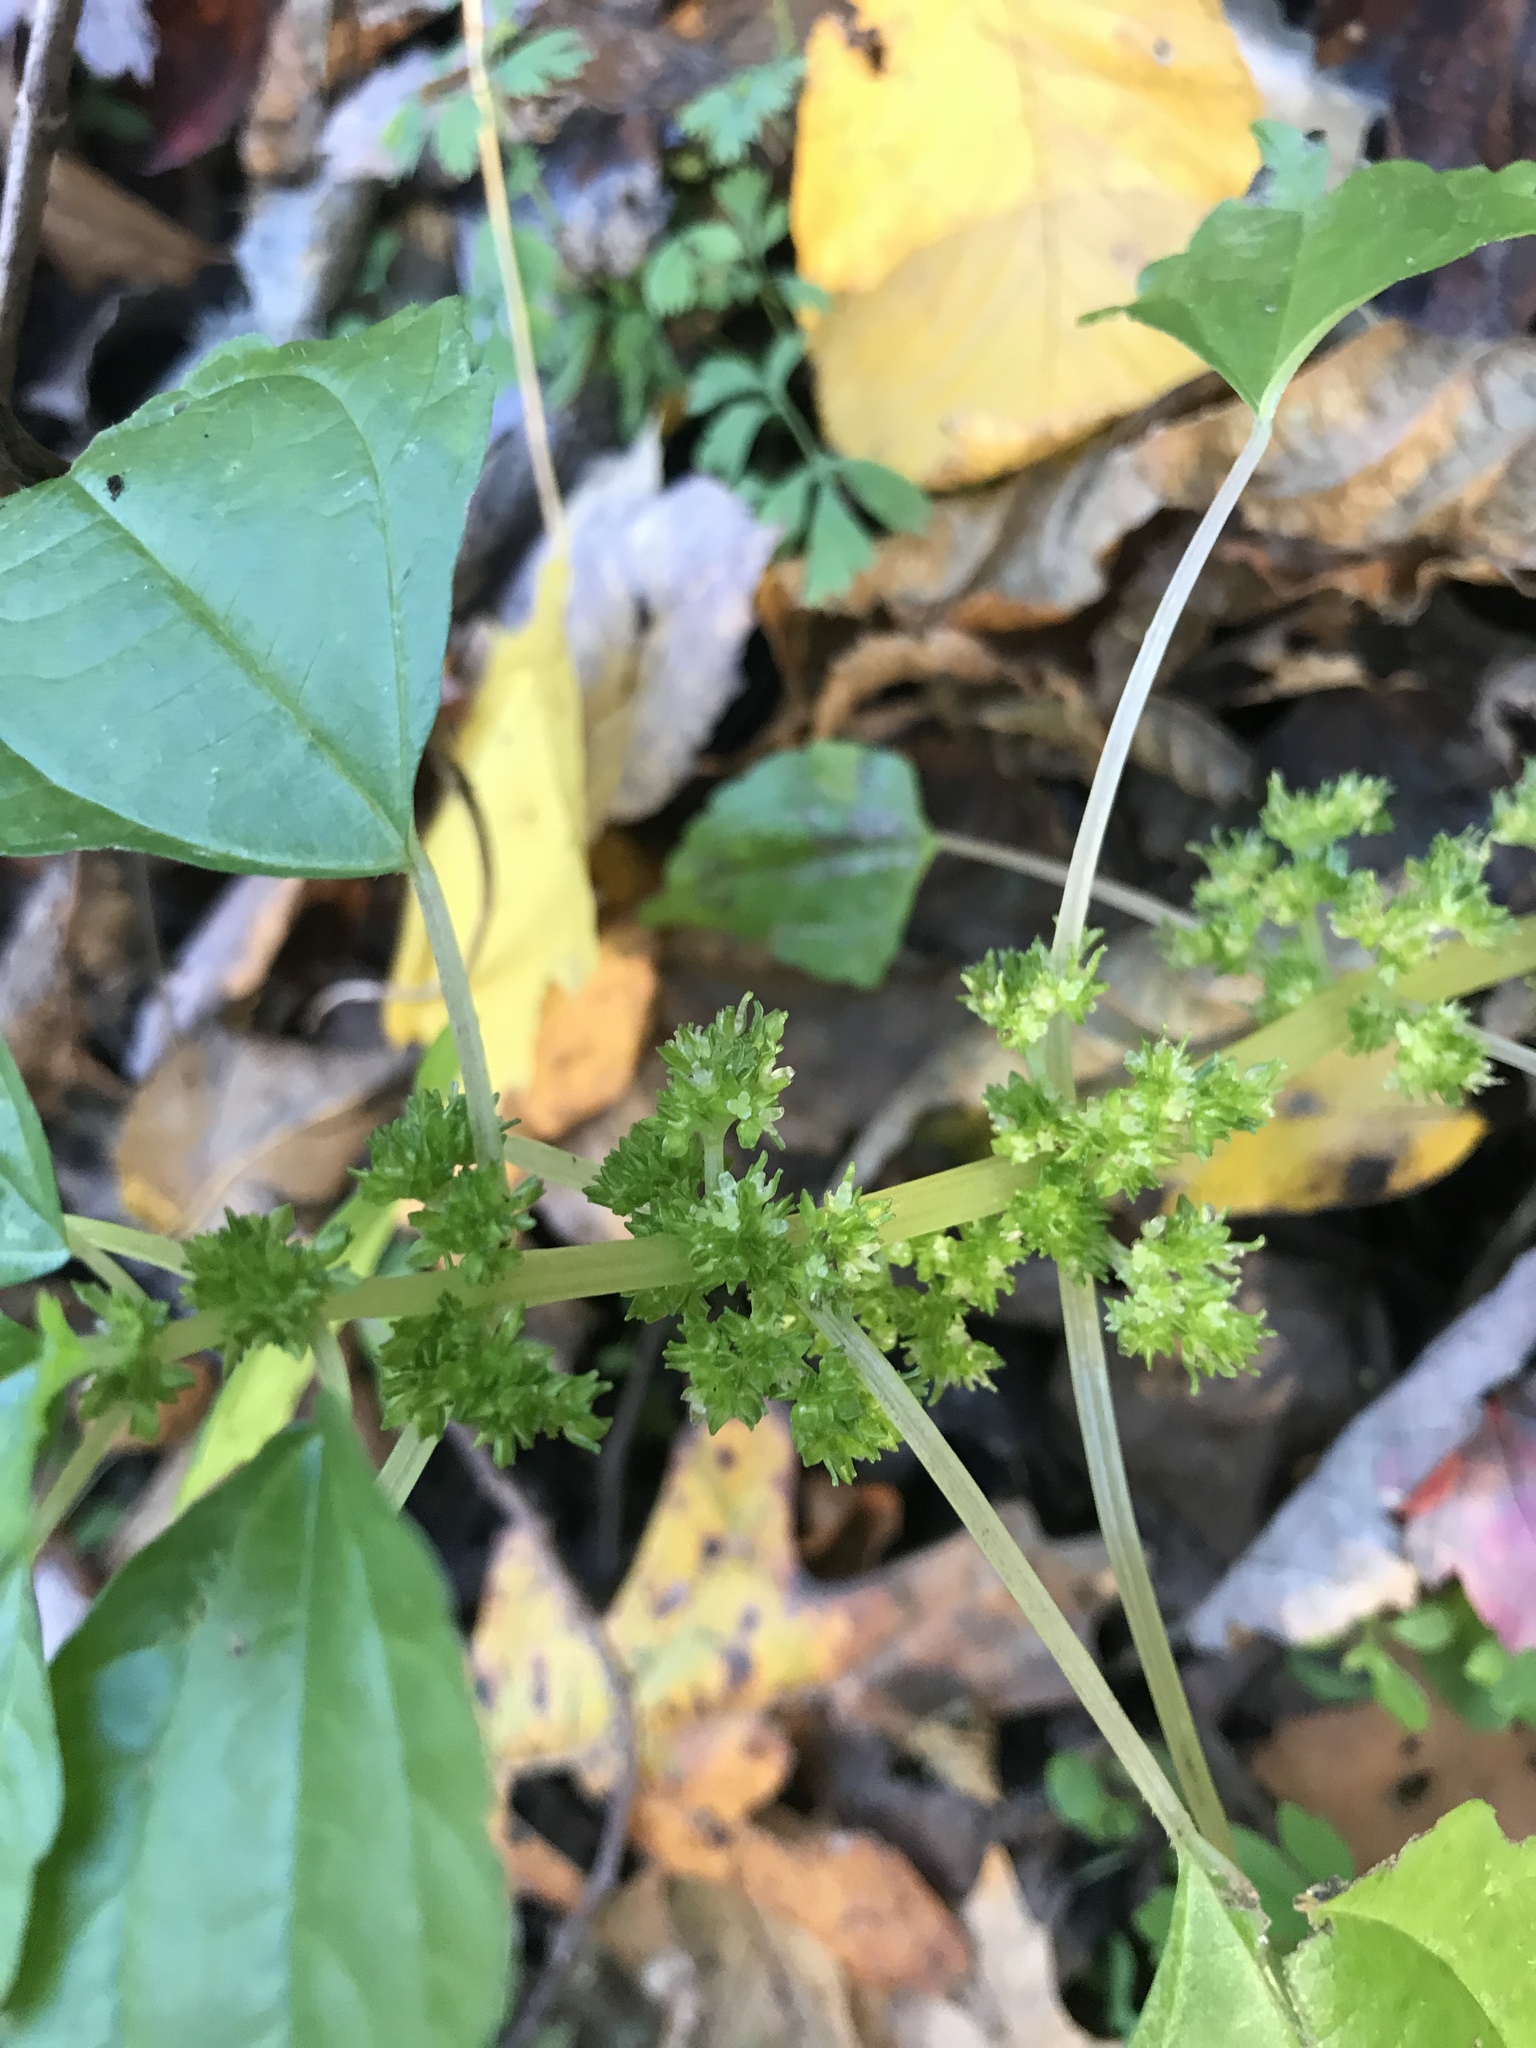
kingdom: Plantae
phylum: Tracheophyta
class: Magnoliopsida
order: Rosales
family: Urticaceae
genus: Pilea
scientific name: Pilea pumila
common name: Clearweed
